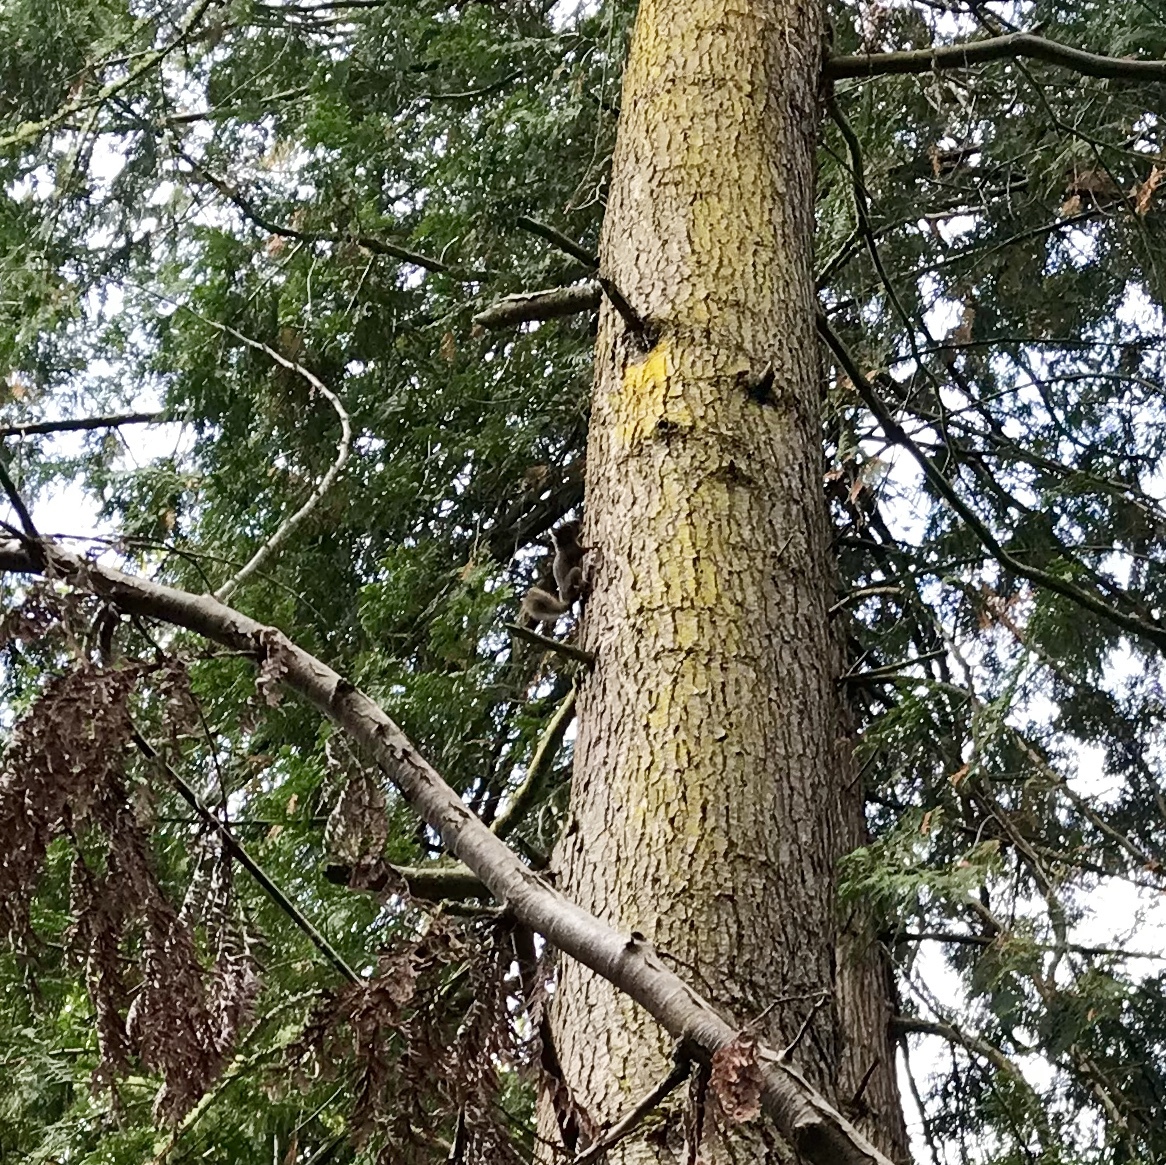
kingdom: Animalia
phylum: Chordata
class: Mammalia
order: Rodentia
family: Sciuridae
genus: Tamiasciurus
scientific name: Tamiasciurus douglasii
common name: Douglas's squirrel
